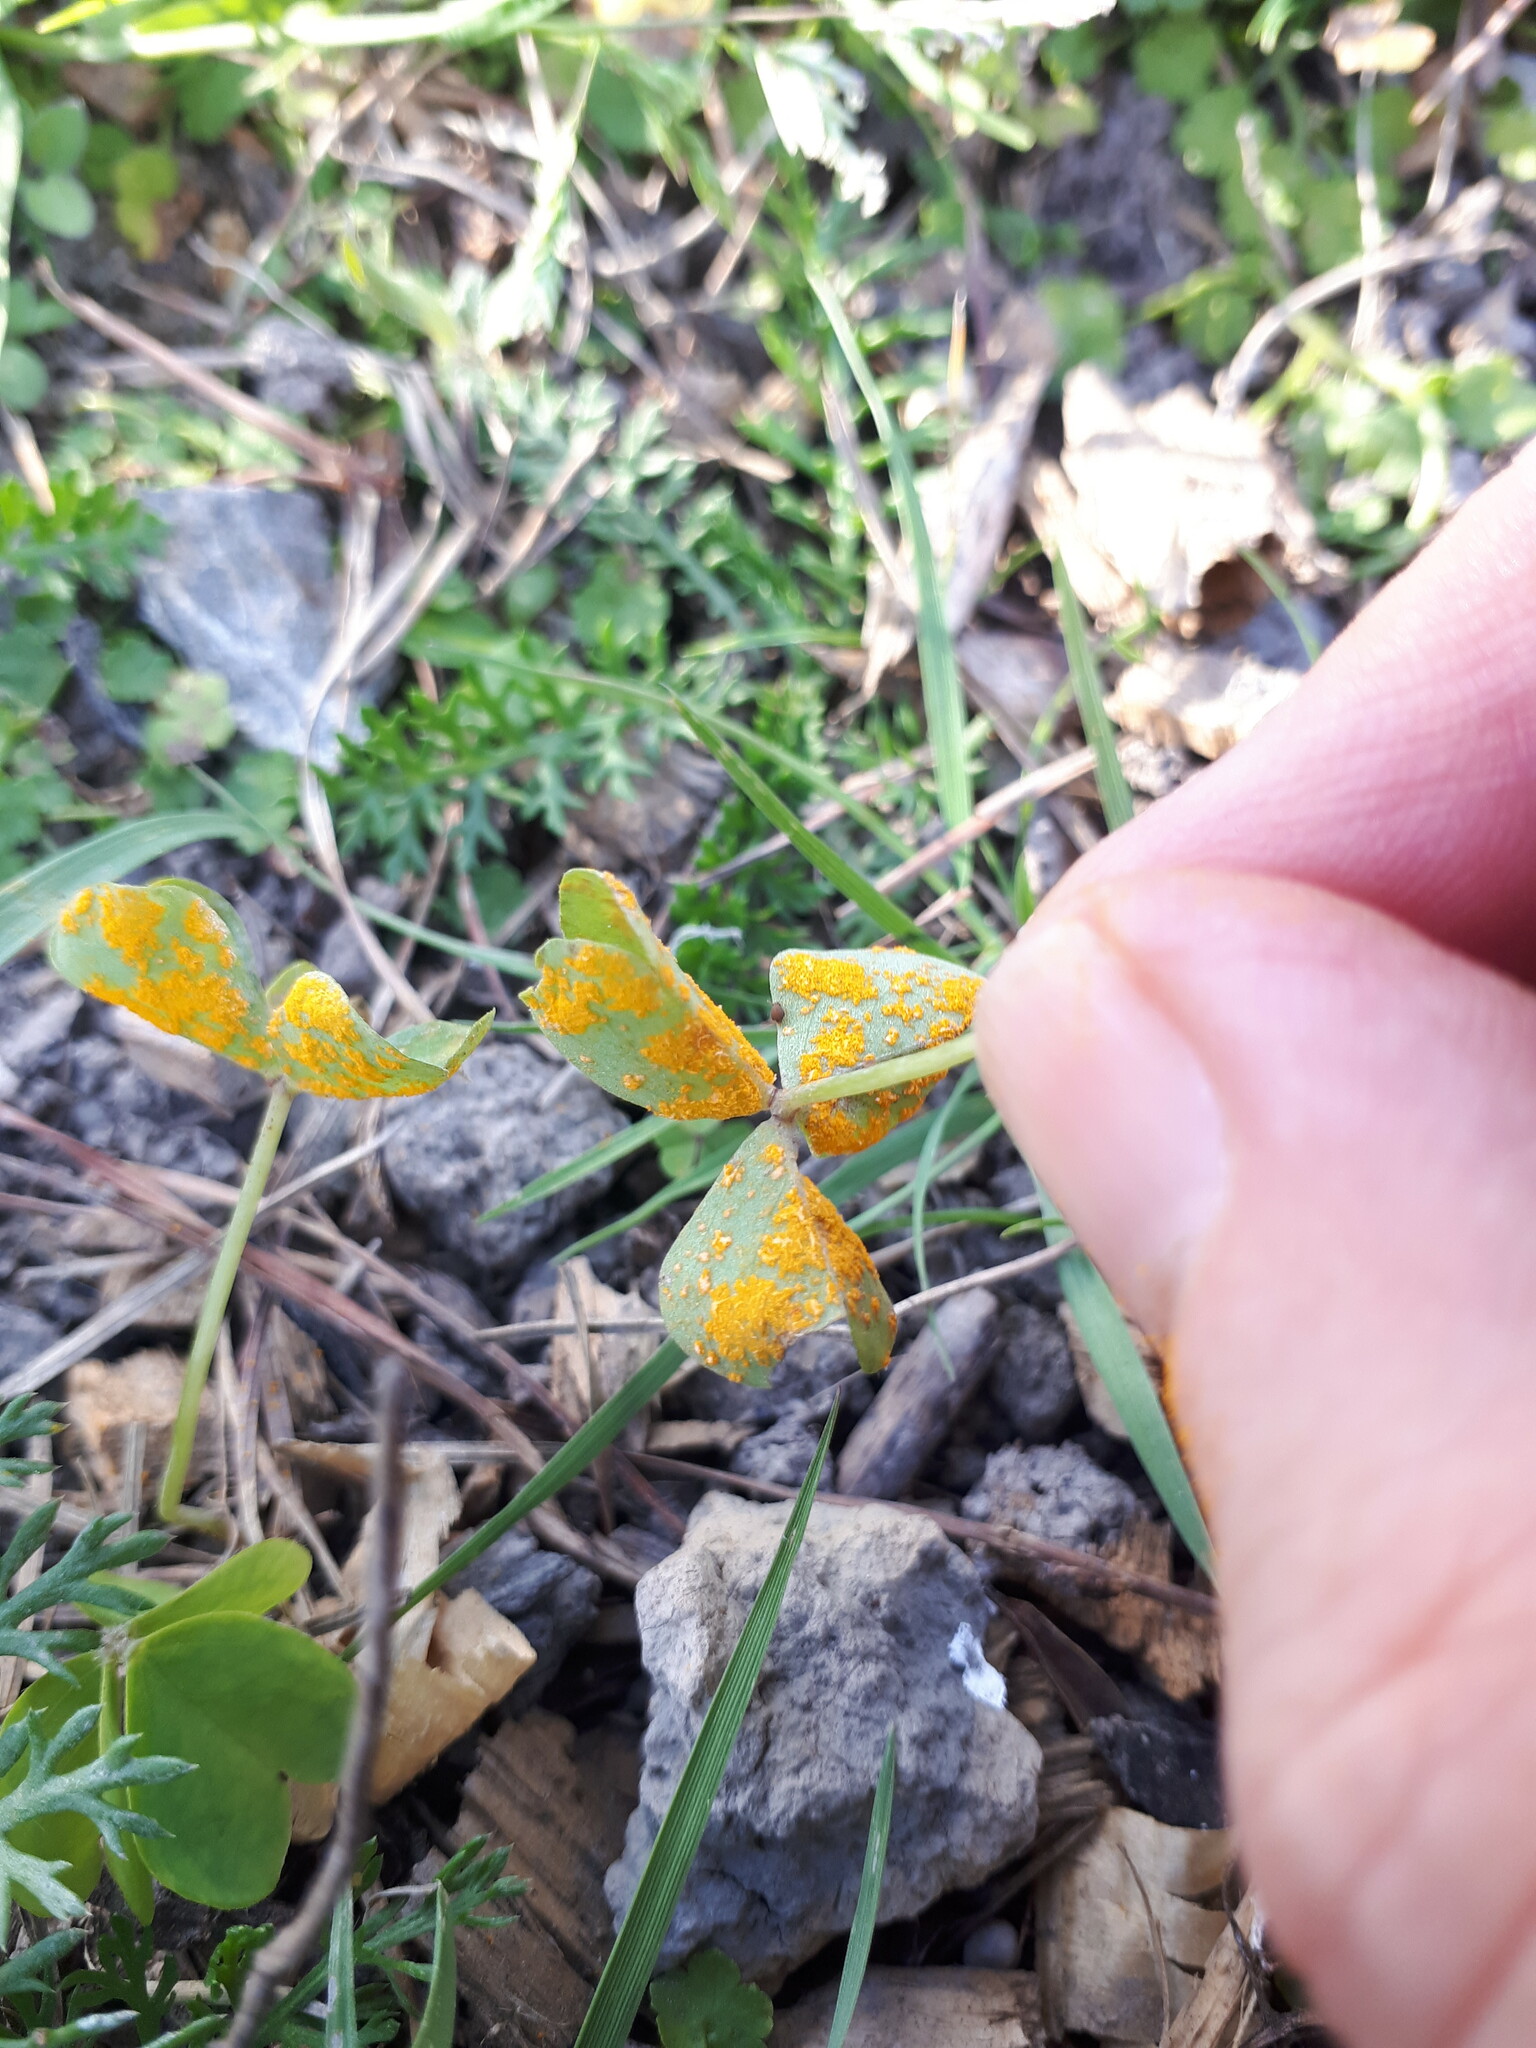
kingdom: Fungi
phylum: Basidiomycota
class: Pucciniomycetes
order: Pucciniales
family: Pucciniaceae
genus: Puccinia
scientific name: Puccinia oxalidis
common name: Oxalis rust
